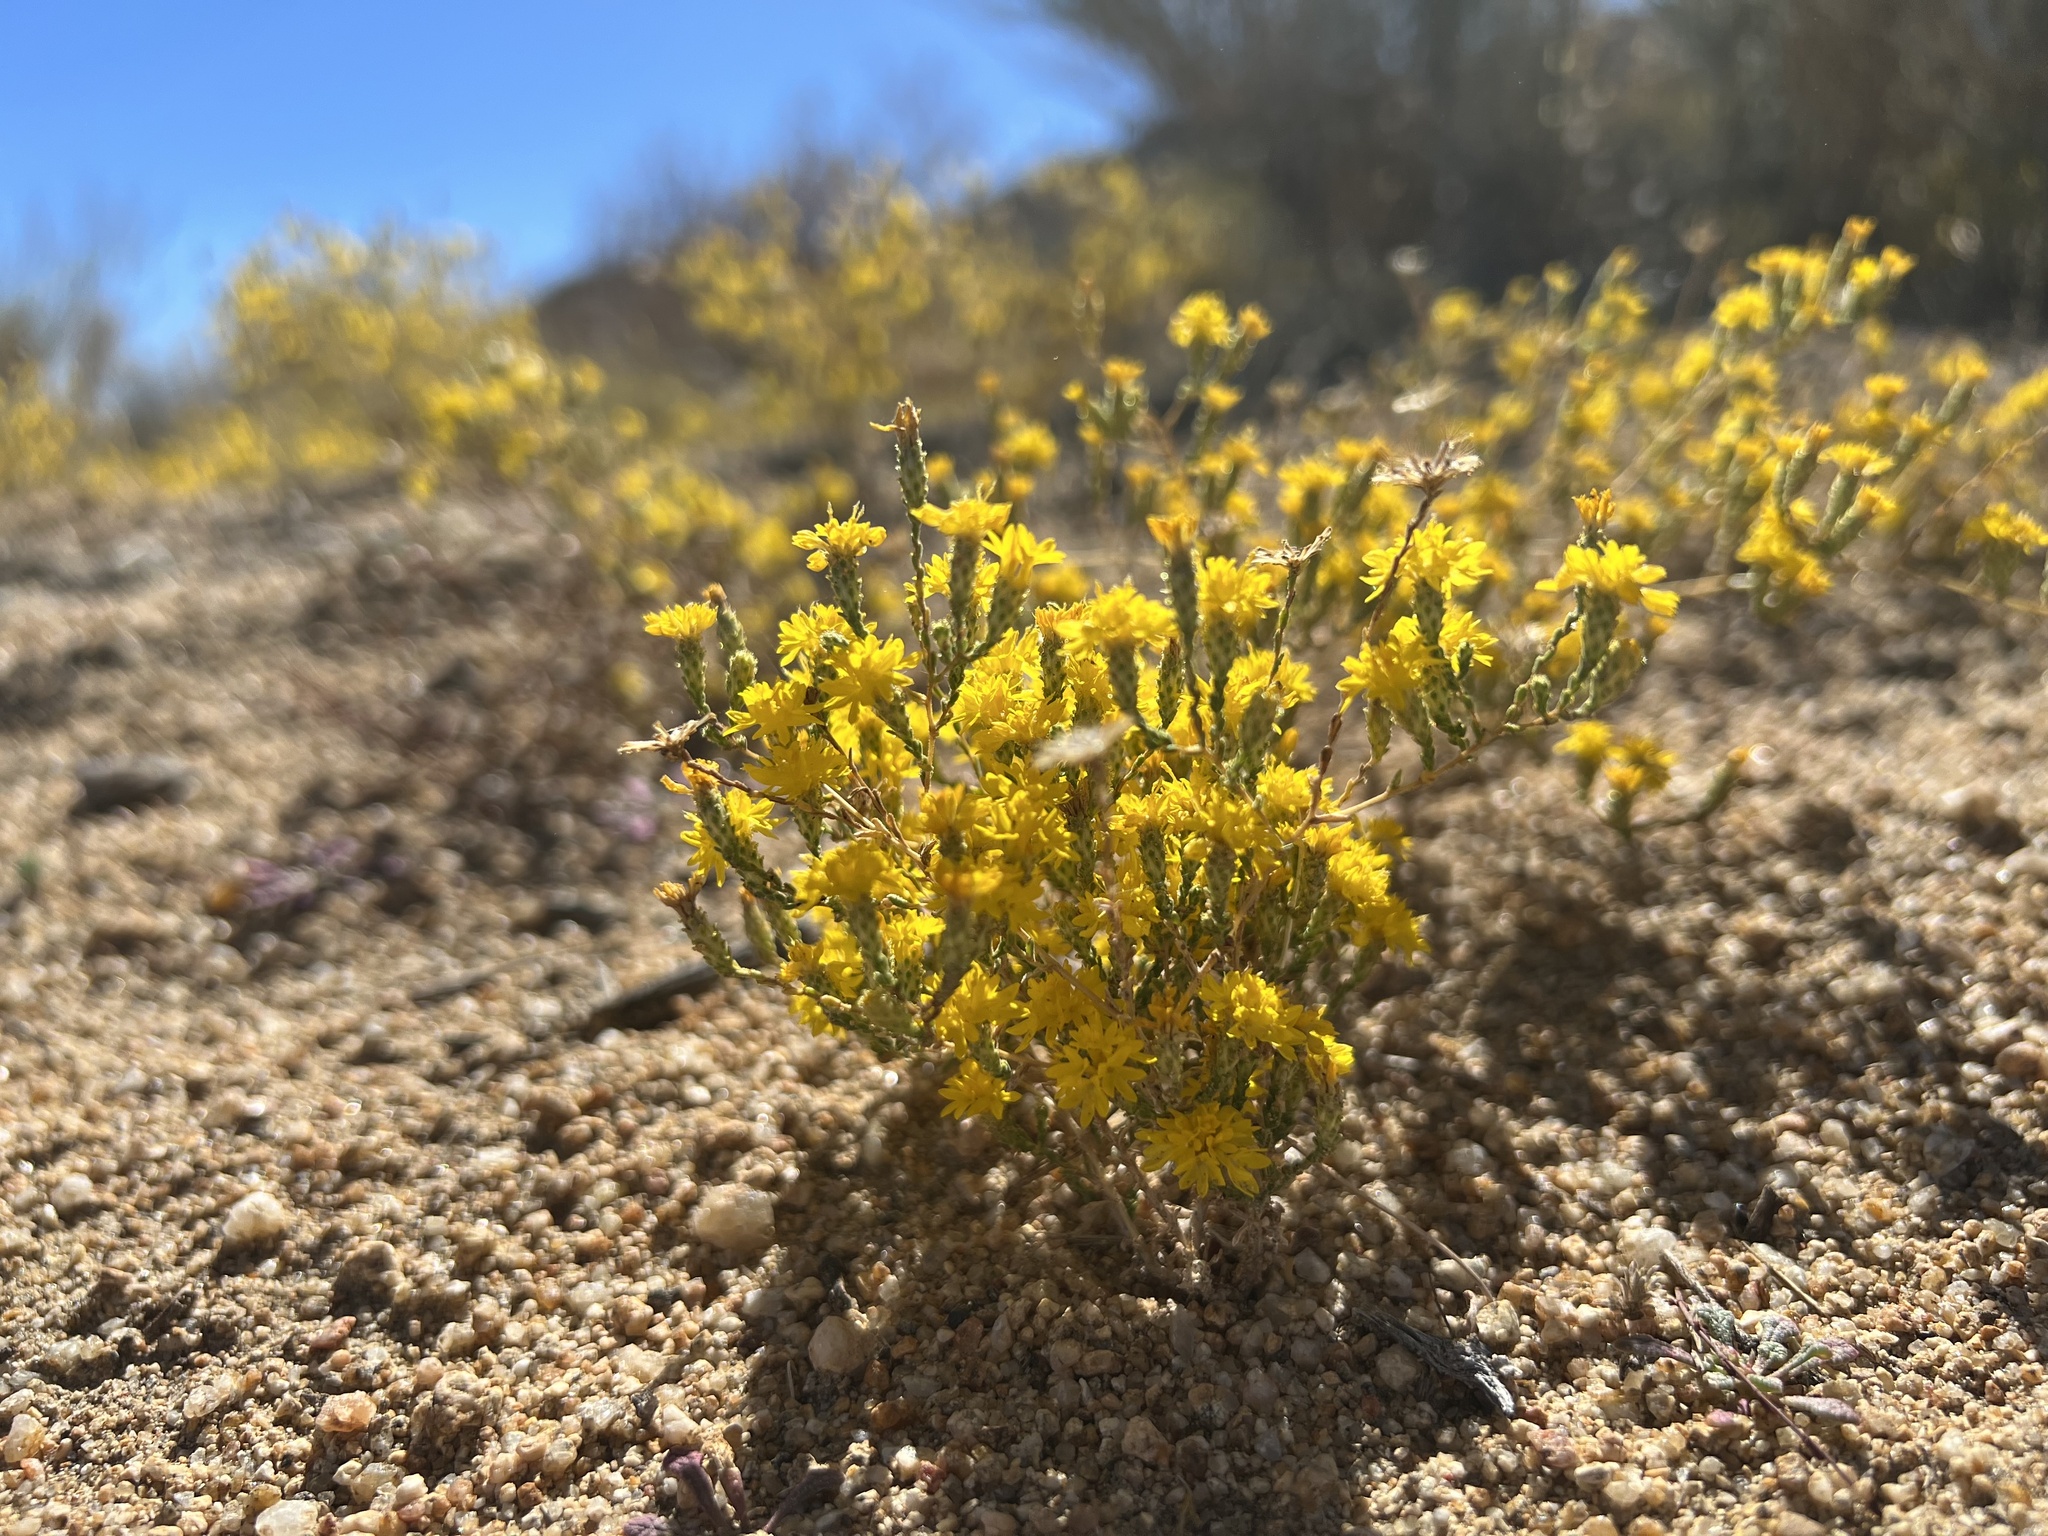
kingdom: Plantae
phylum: Tracheophyta
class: Magnoliopsida
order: Asterales
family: Asteraceae
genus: Lessingia
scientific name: Lessingia glandulifera
